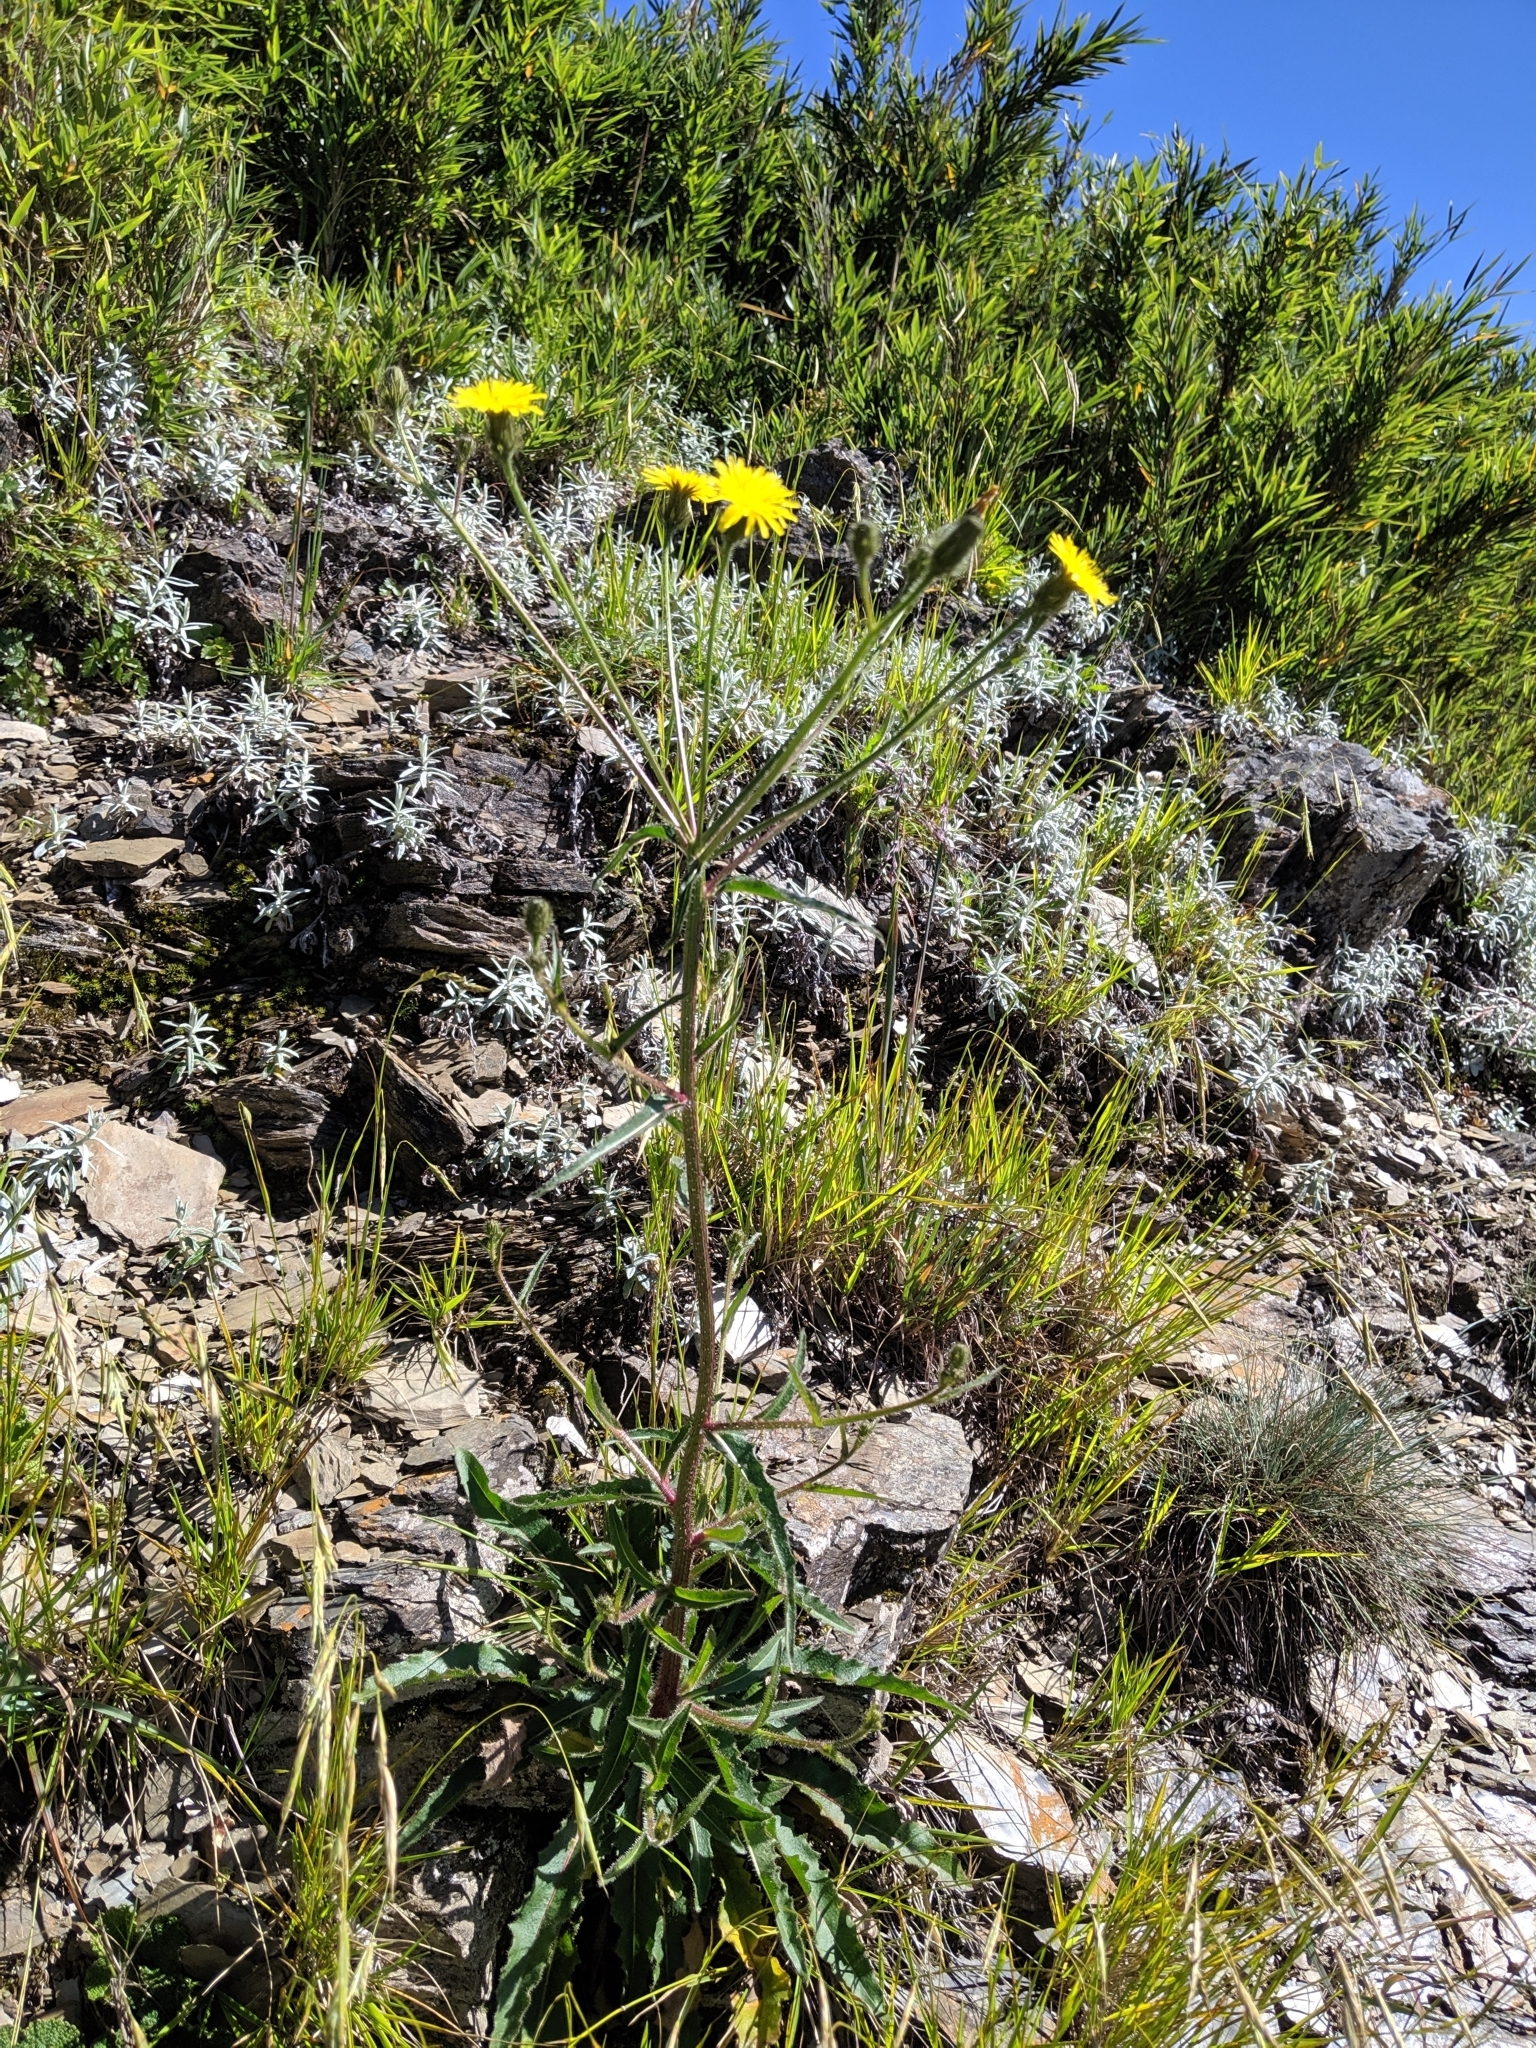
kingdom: Plantae
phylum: Tracheophyta
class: Magnoliopsida
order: Asterales
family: Asteraceae
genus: Picris
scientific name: Picris angustifolia
